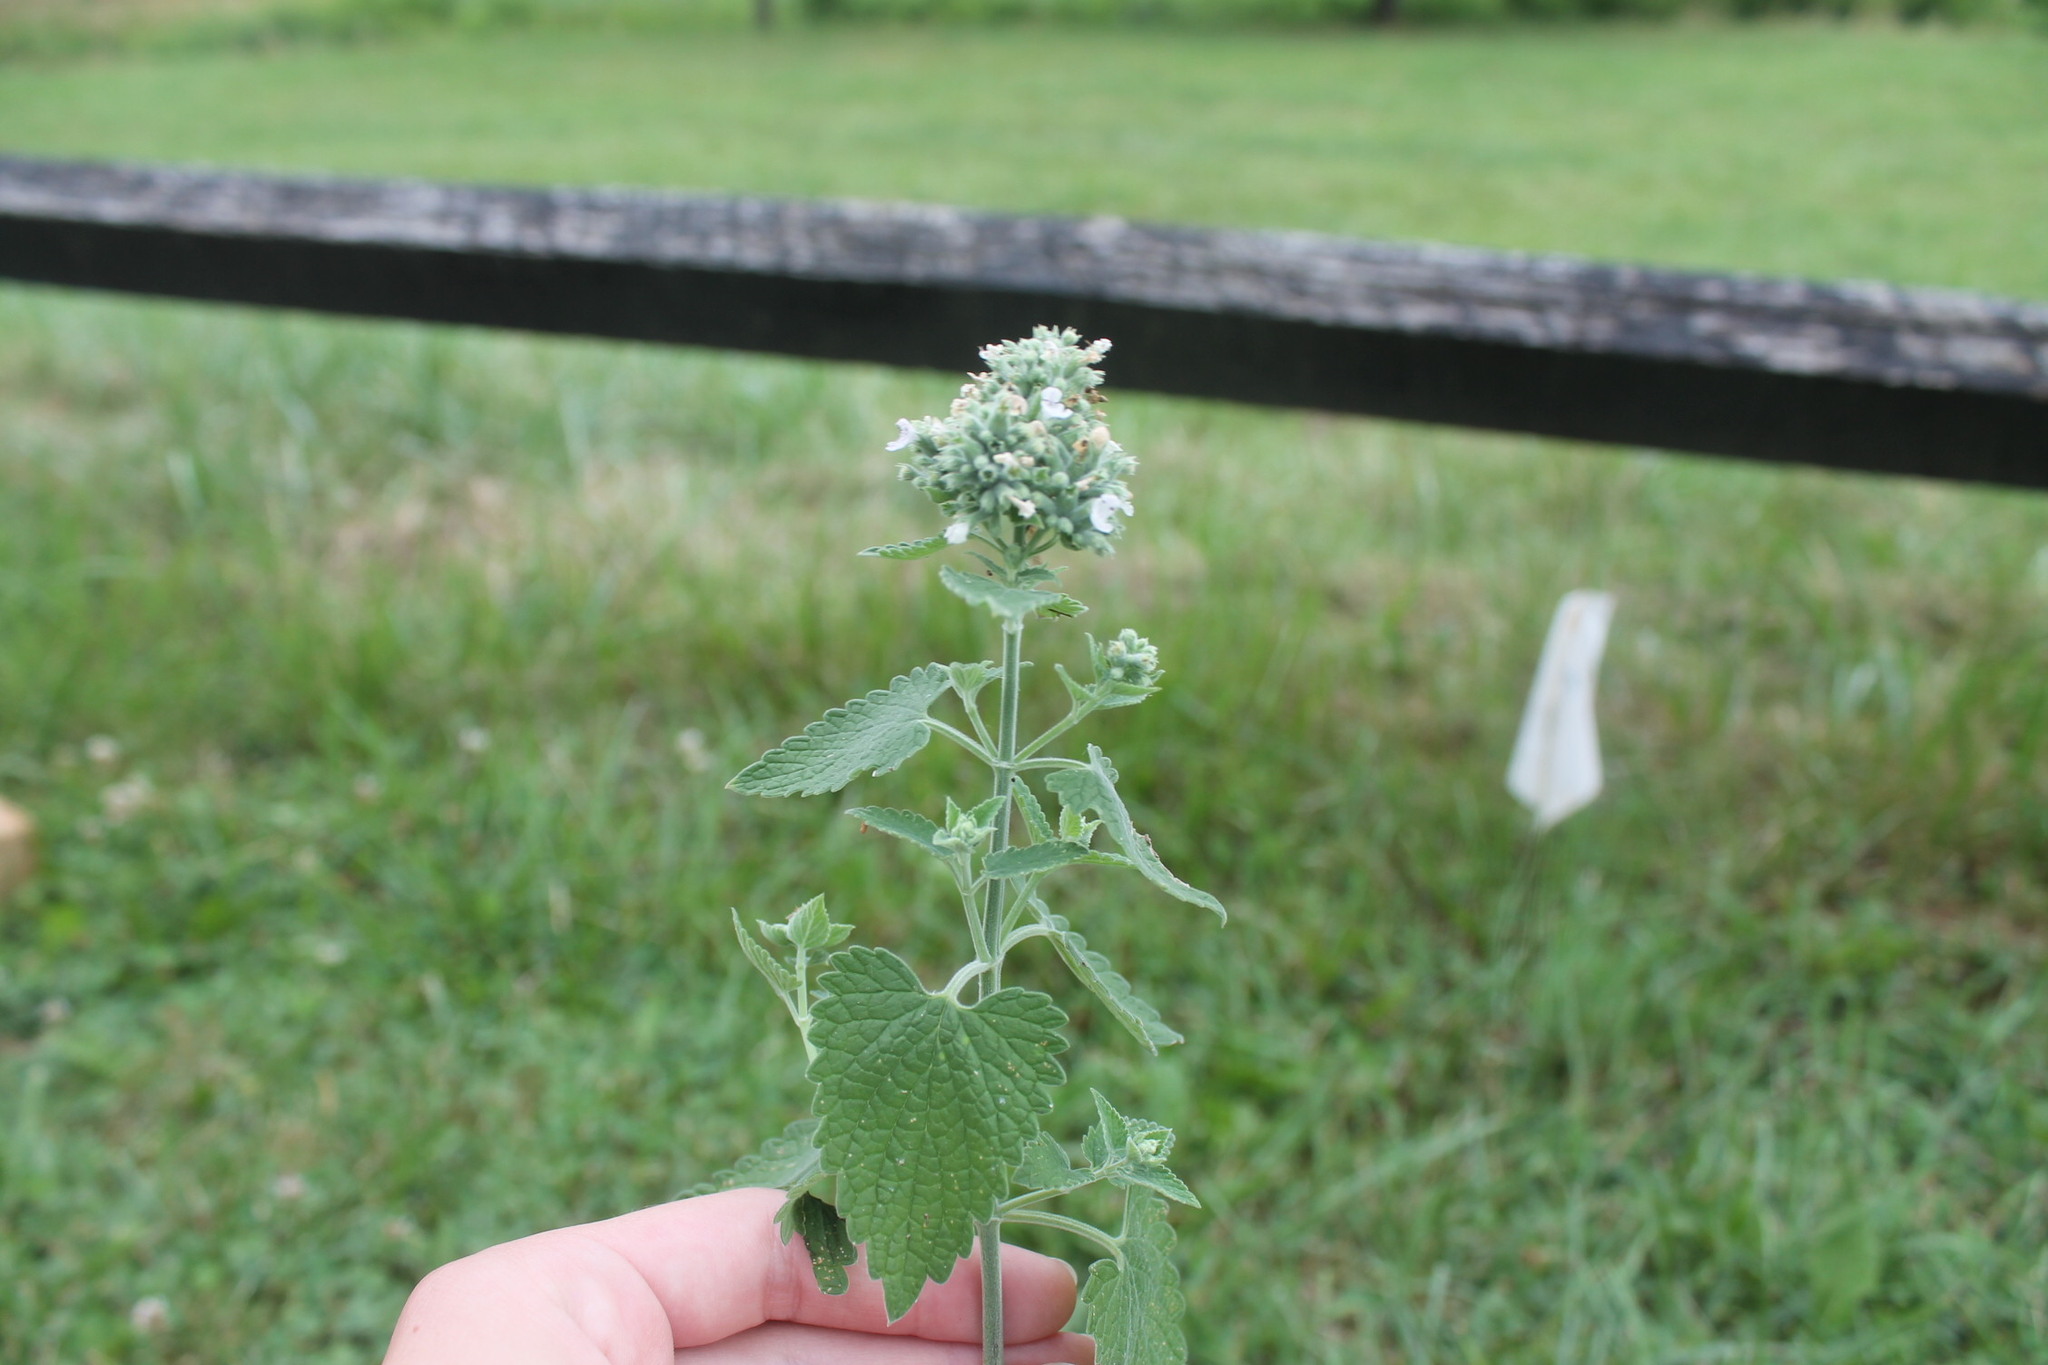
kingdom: Plantae
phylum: Tracheophyta
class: Magnoliopsida
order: Lamiales
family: Lamiaceae
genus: Nepeta
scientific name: Nepeta cataria
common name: Catnip
